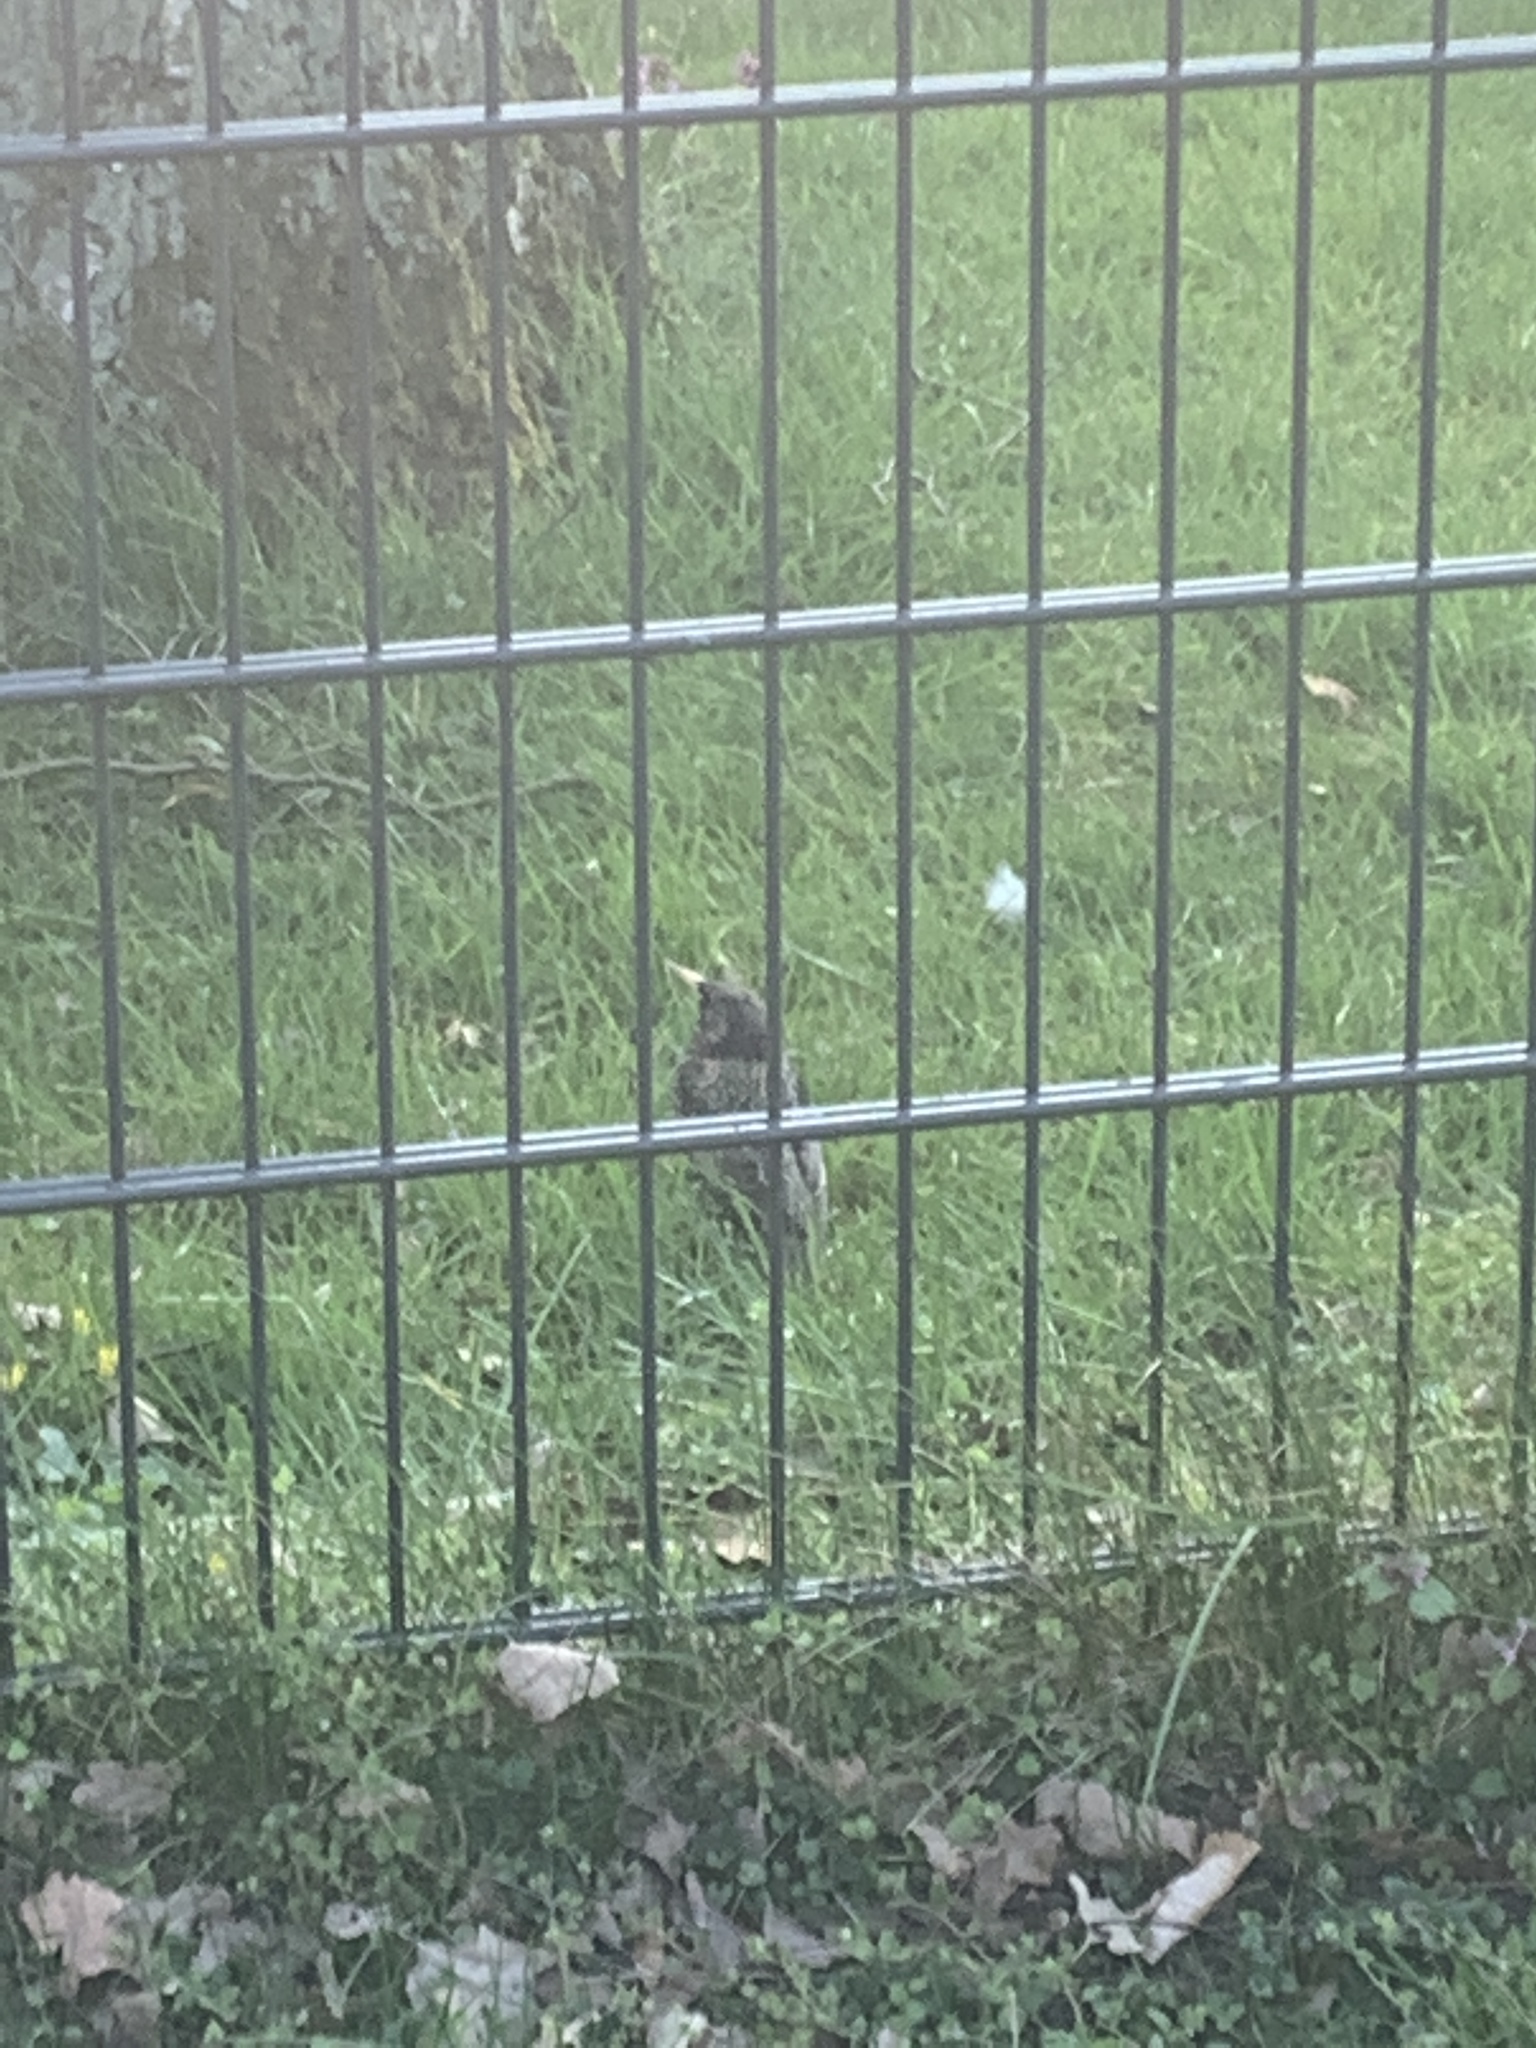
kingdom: Animalia
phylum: Chordata
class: Aves
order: Passeriformes
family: Sturnidae
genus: Sturnus
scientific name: Sturnus vulgaris
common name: Common starling
